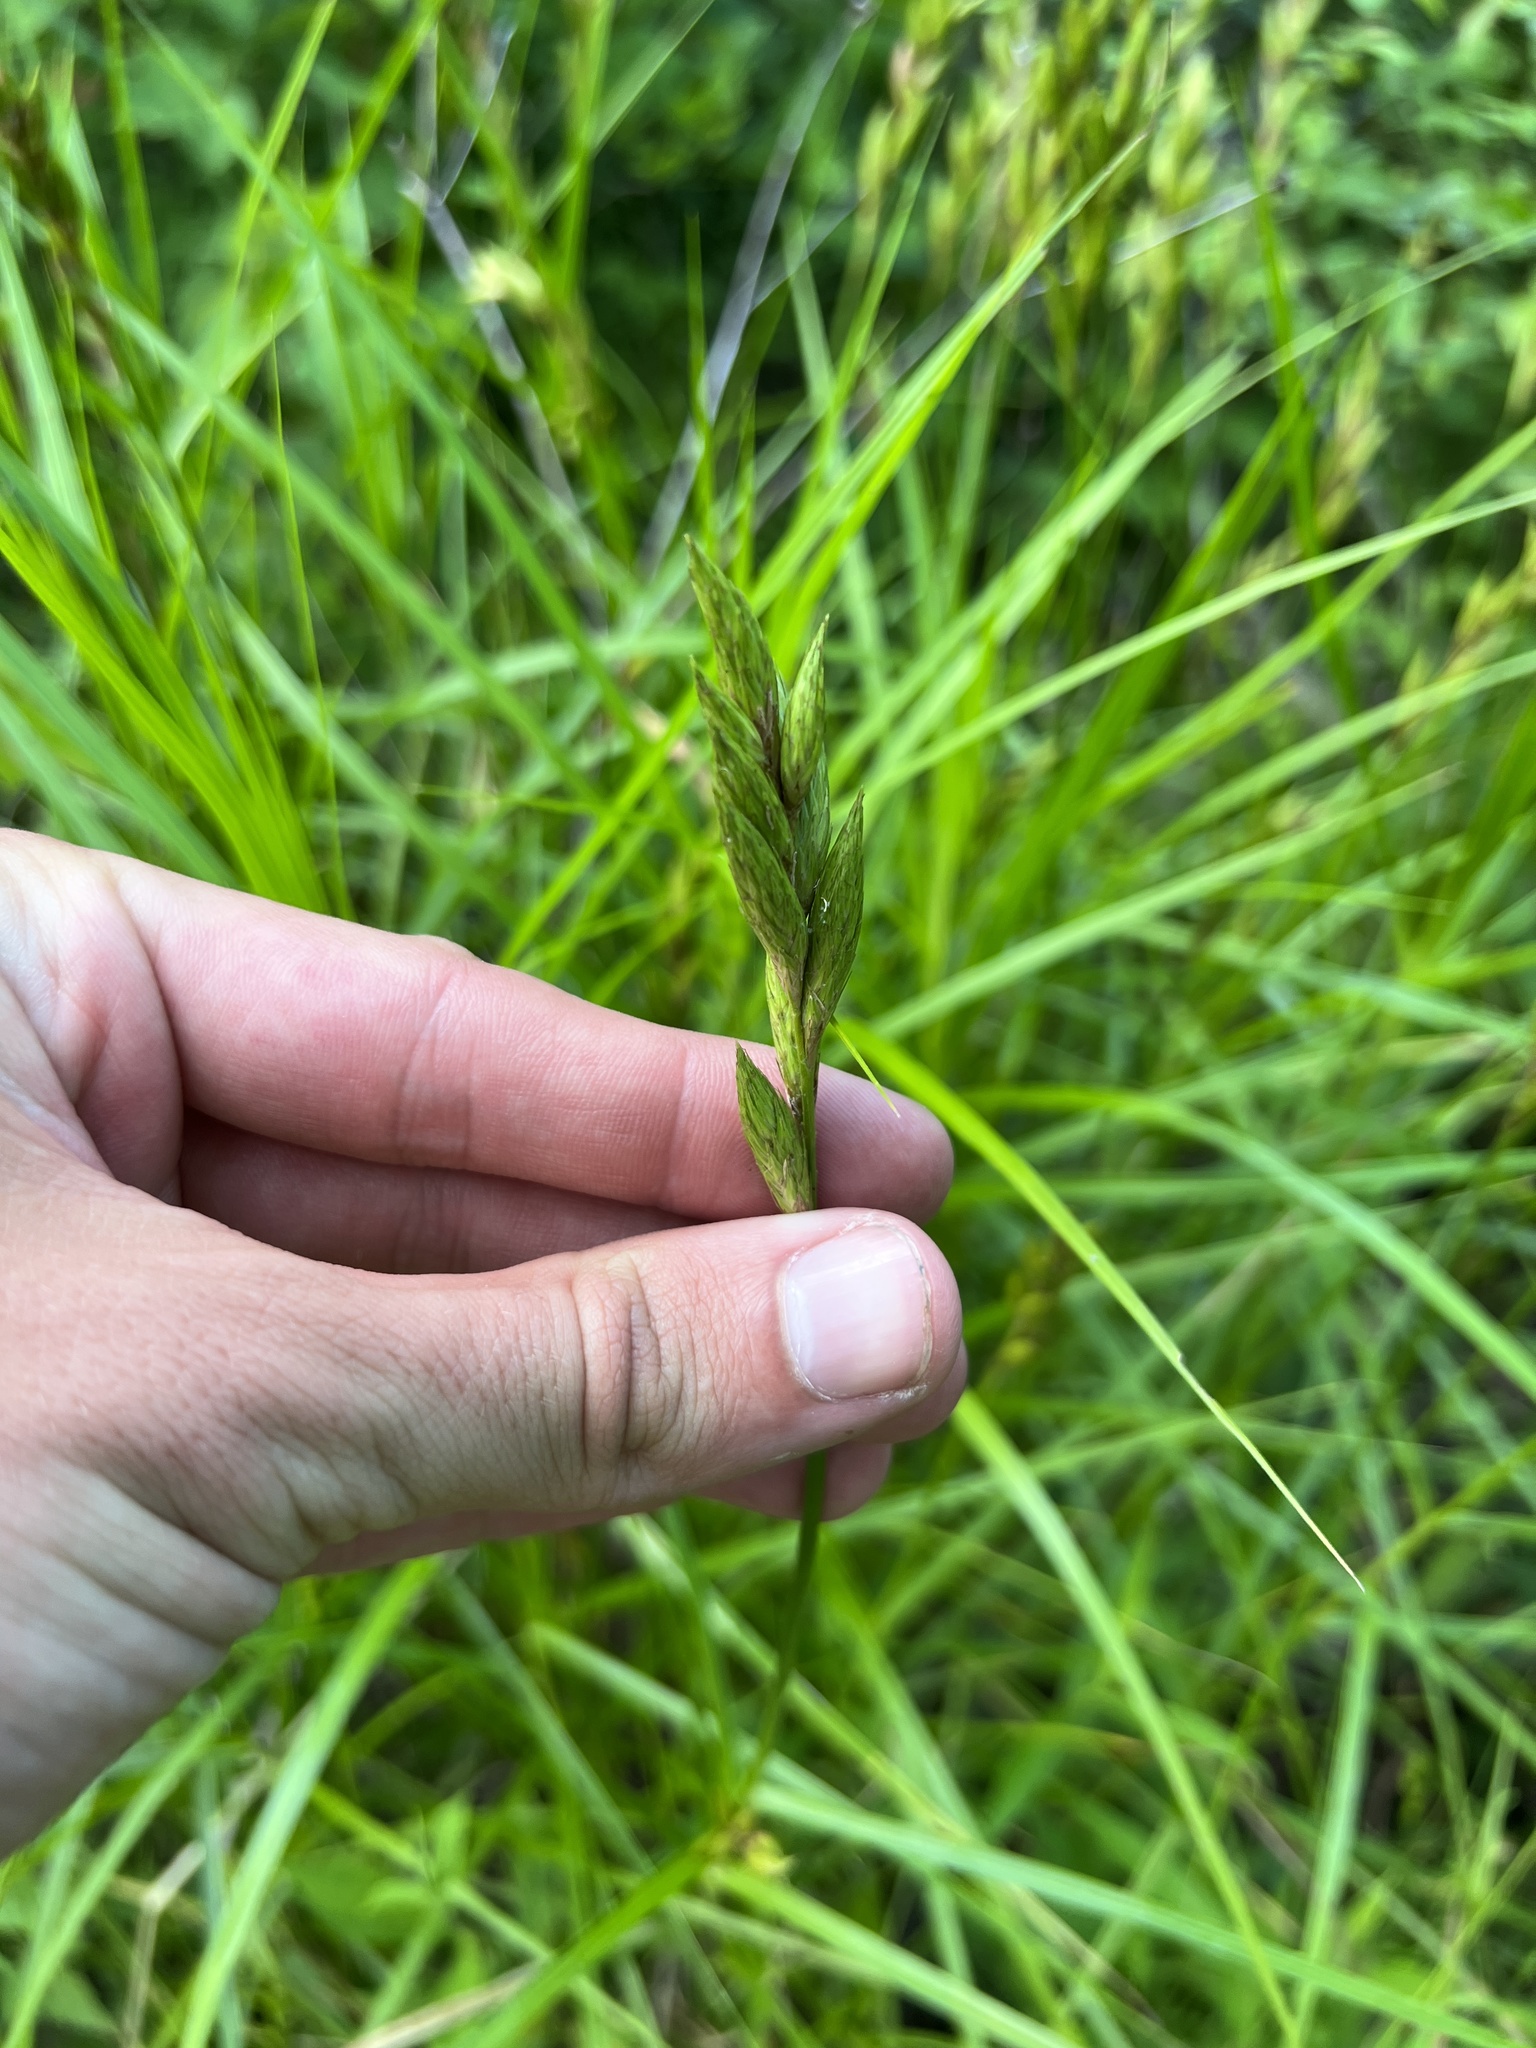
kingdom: Plantae
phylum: Tracheophyta
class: Liliopsida
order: Poales
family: Cyperaceae
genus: Carex
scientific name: Carex muskingumensis
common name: Muskingum sedge
